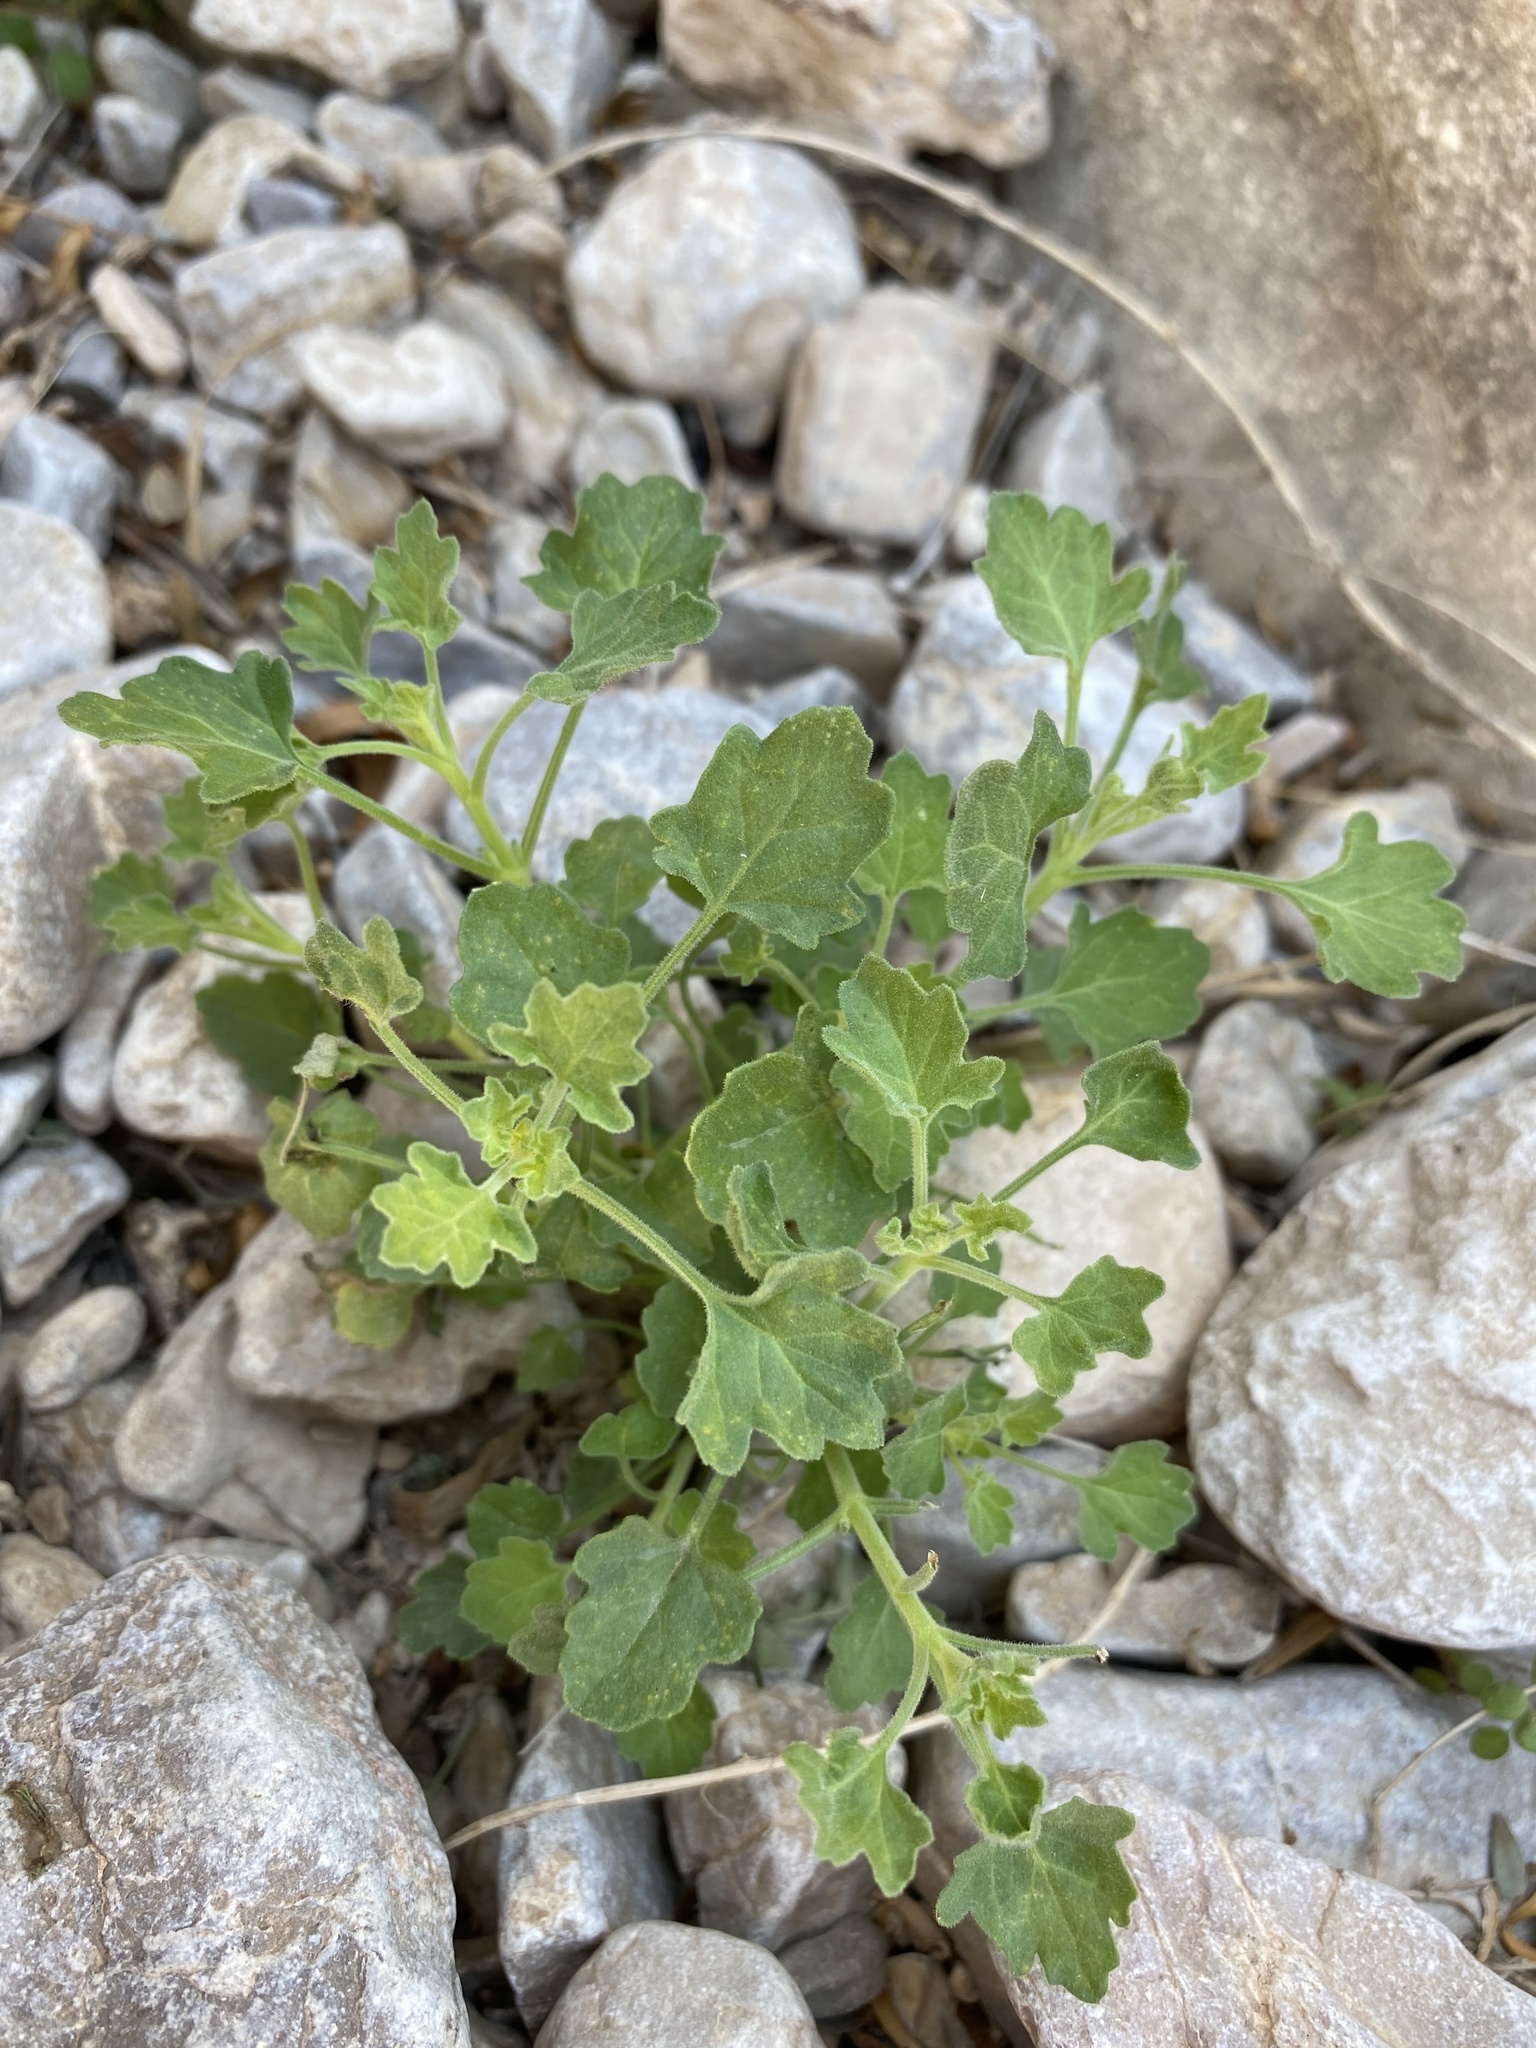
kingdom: Plantae
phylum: Tracheophyta
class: Magnoliopsida
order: Asterales
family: Asteraceae
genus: Laphamia
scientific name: Laphamia aglossa
